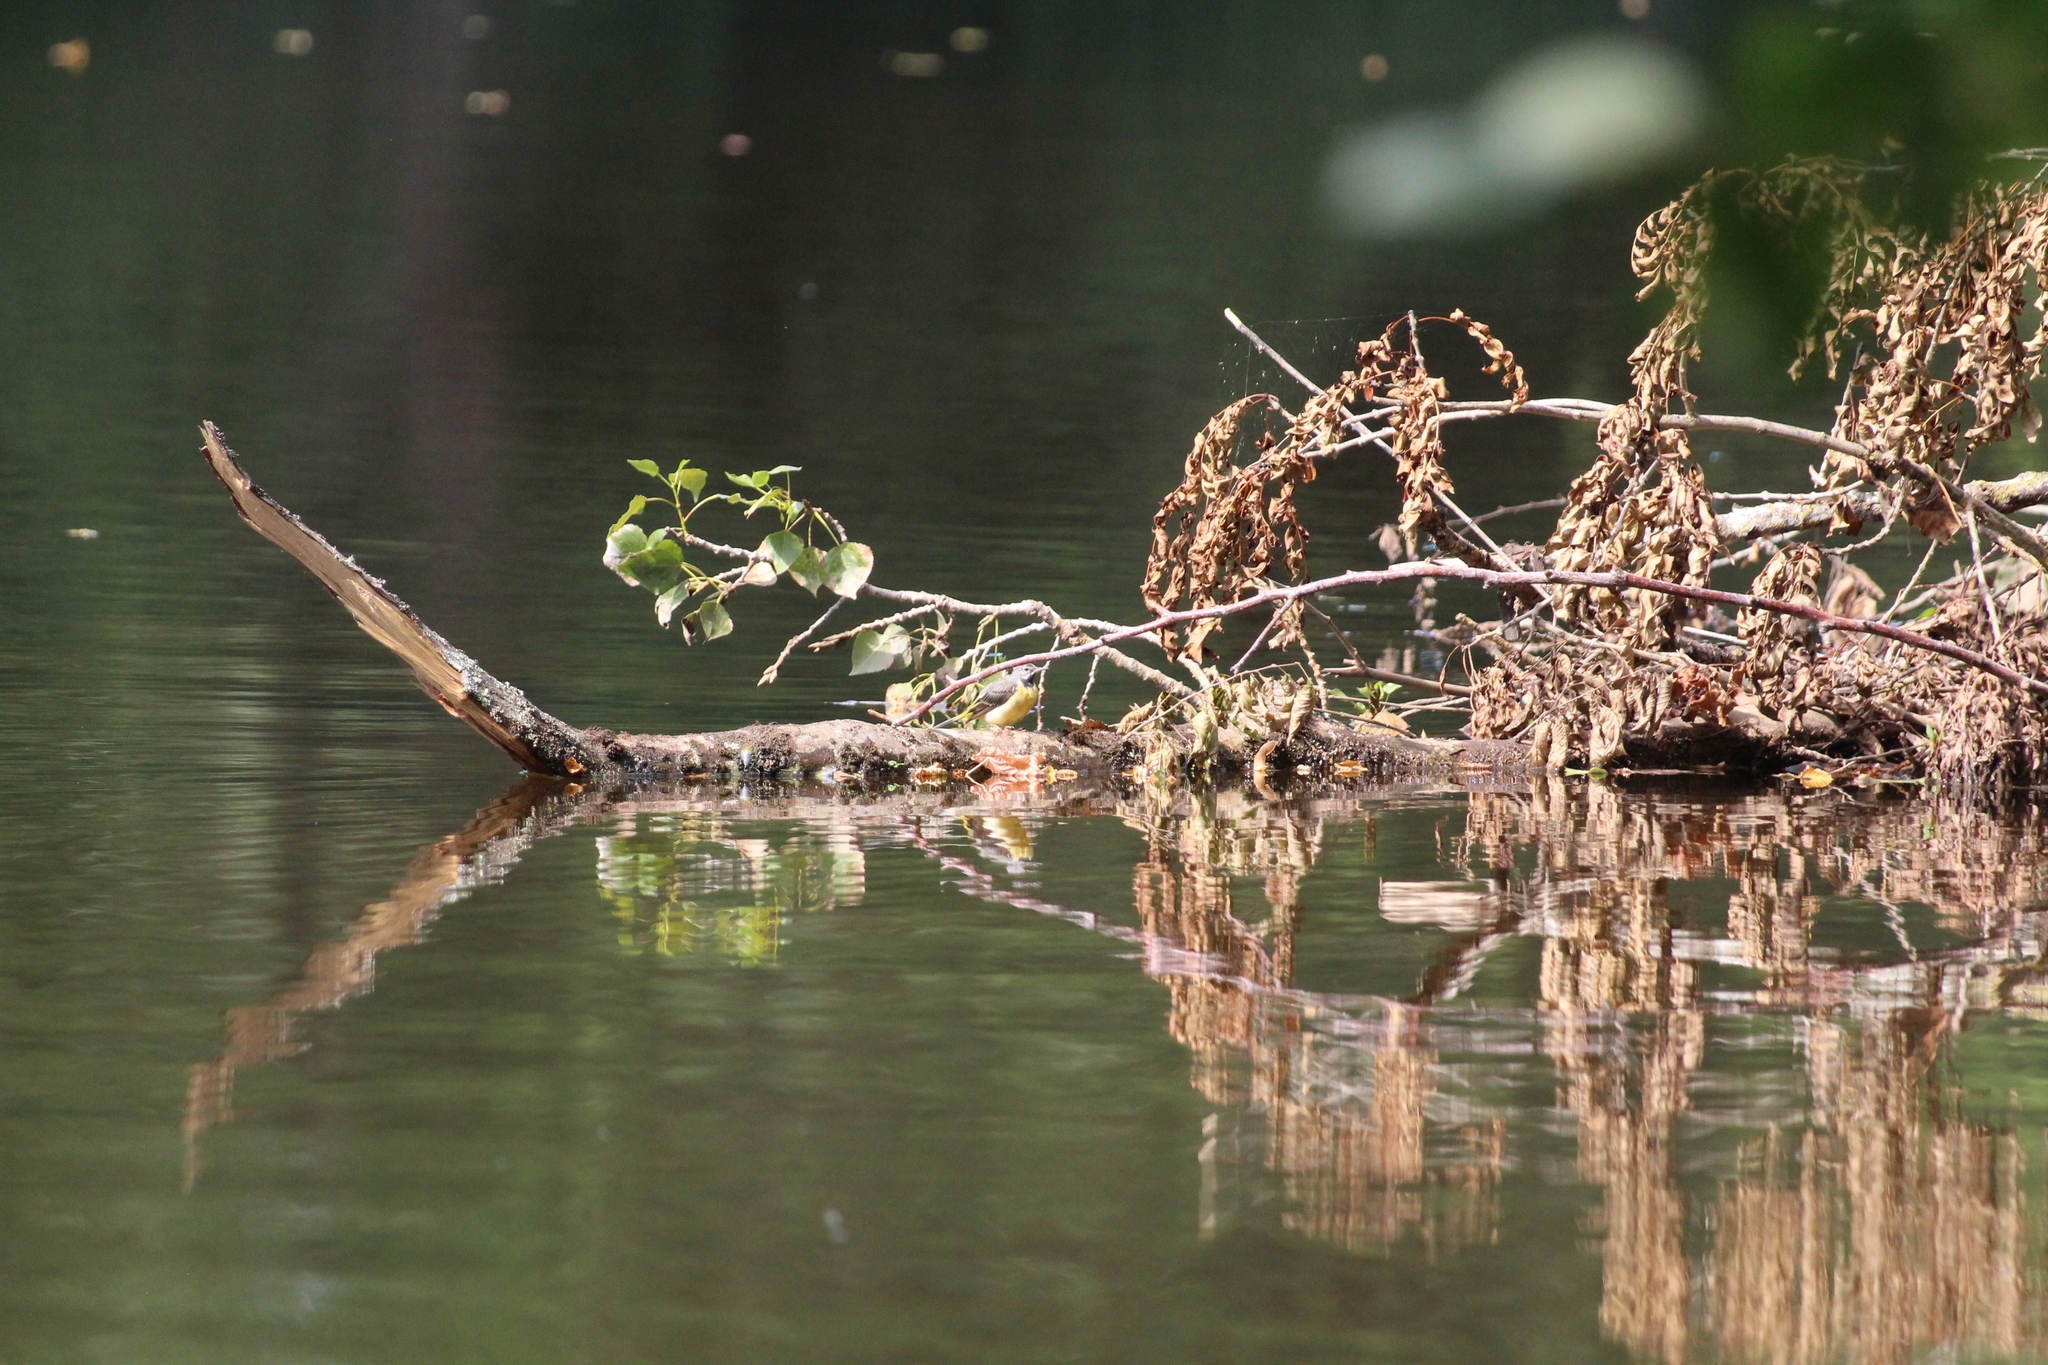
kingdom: Animalia
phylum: Chordata
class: Aves
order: Passeriformes
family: Motacillidae
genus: Motacilla
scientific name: Motacilla cinerea
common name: Grey wagtail
